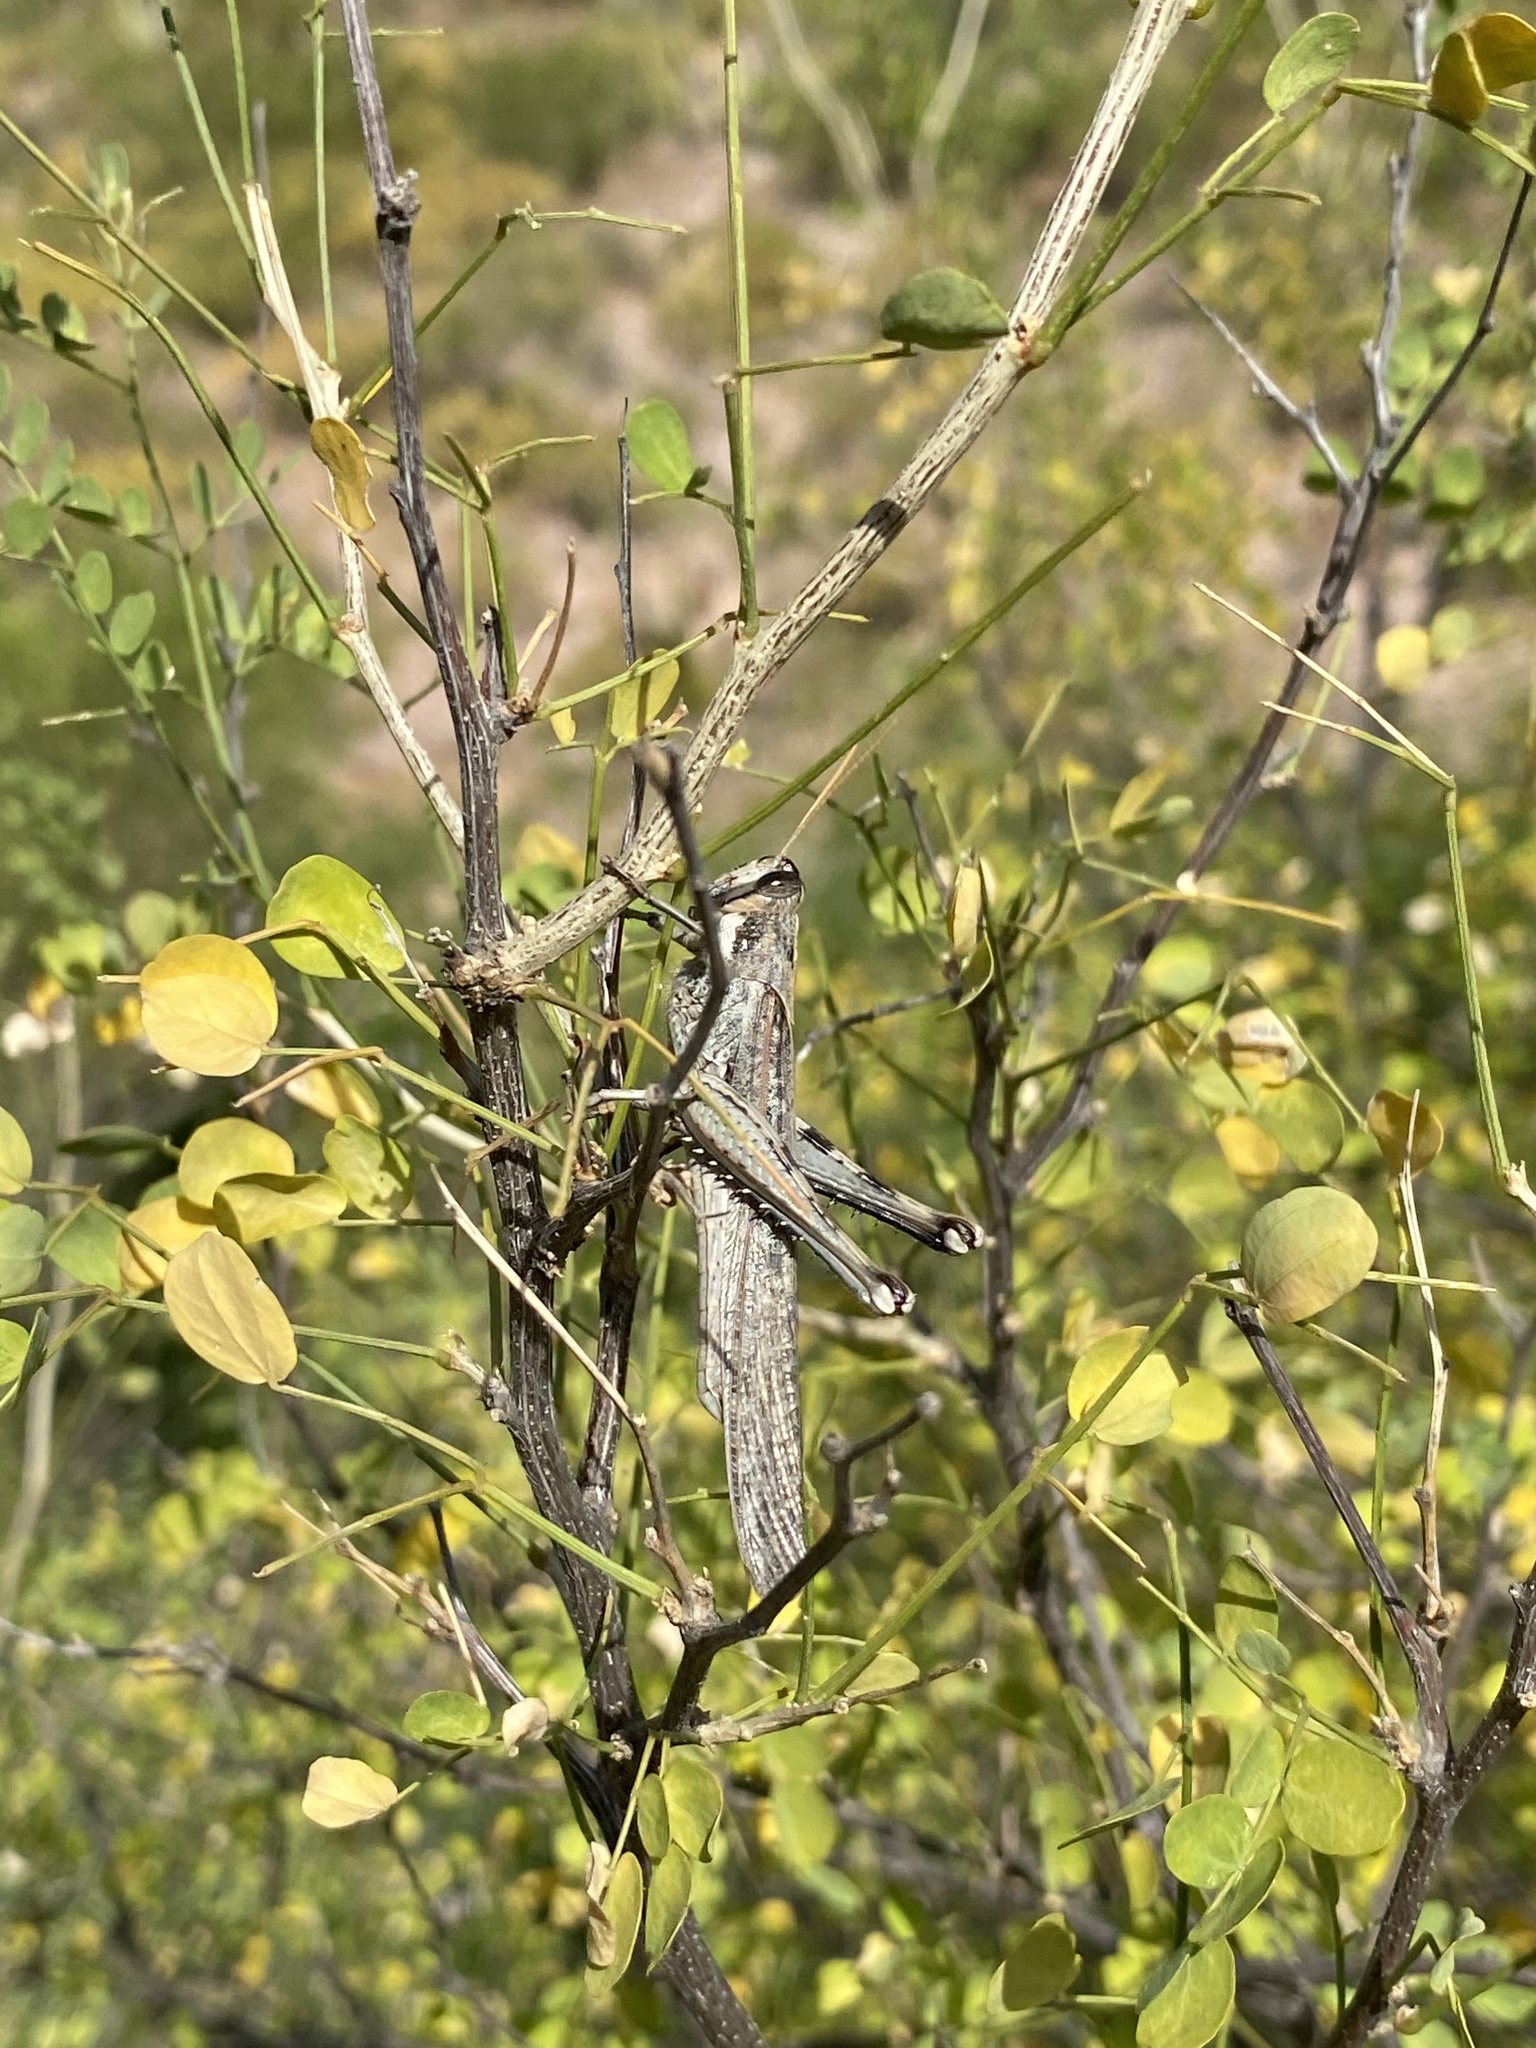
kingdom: Animalia
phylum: Arthropoda
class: Insecta
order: Orthoptera
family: Acrididae
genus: Schistocerca
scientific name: Schistocerca nitens
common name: Vagrant grasshopper
